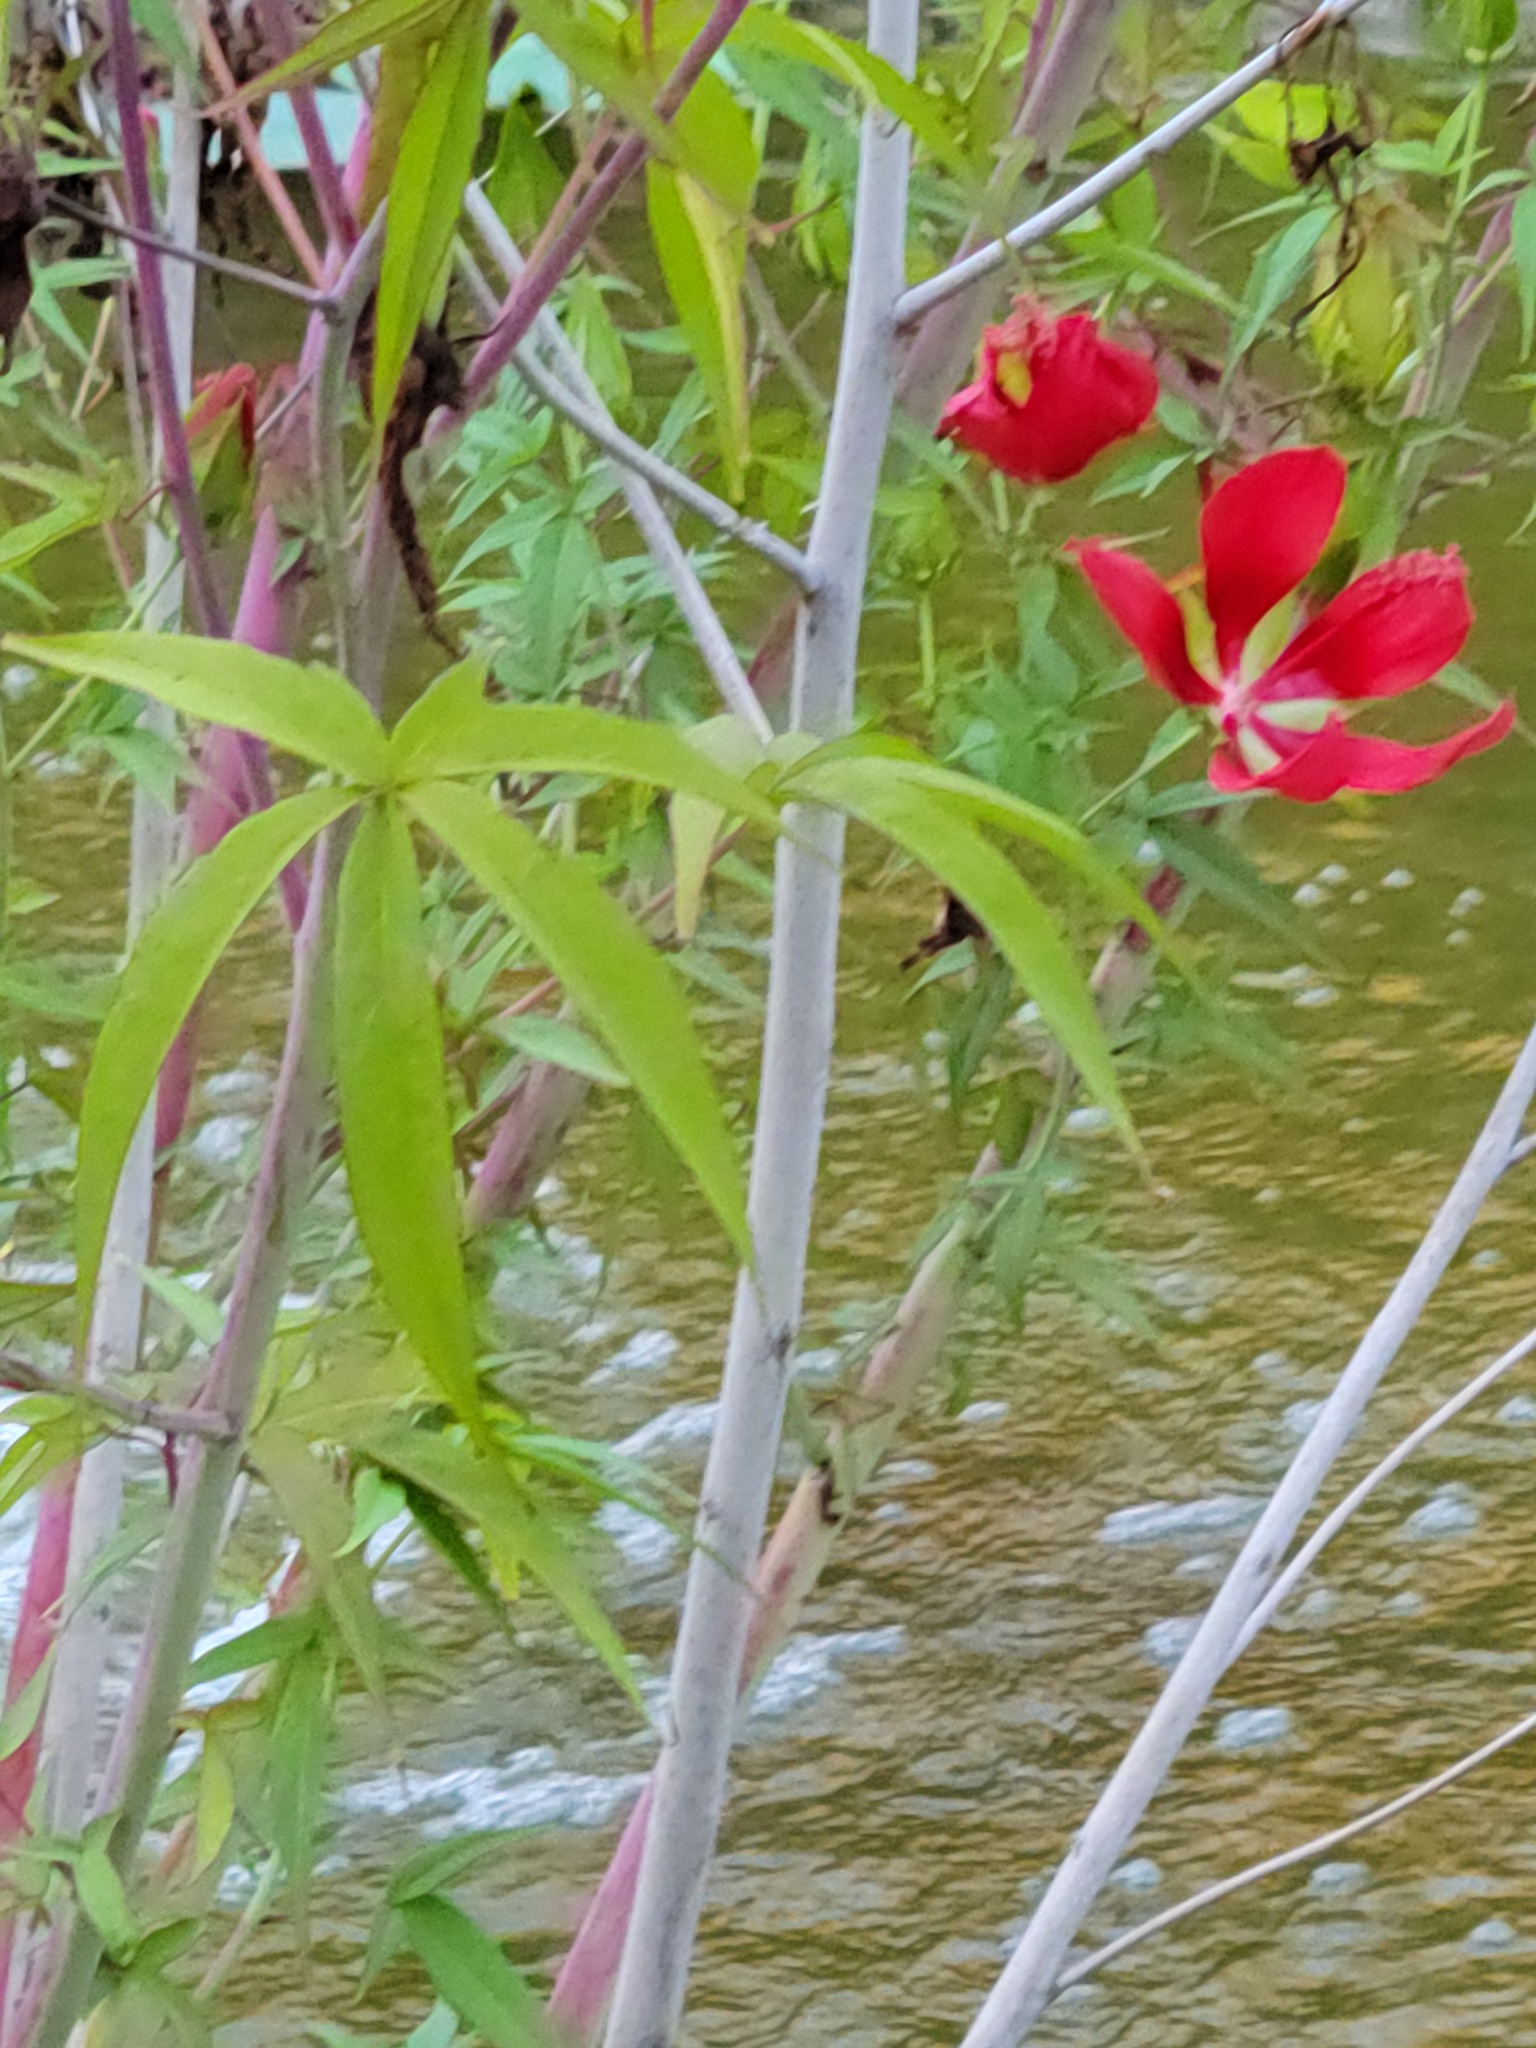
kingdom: Plantae
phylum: Tracheophyta
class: Magnoliopsida
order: Malvales
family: Malvaceae
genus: Hibiscus
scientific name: Hibiscus coccineus
